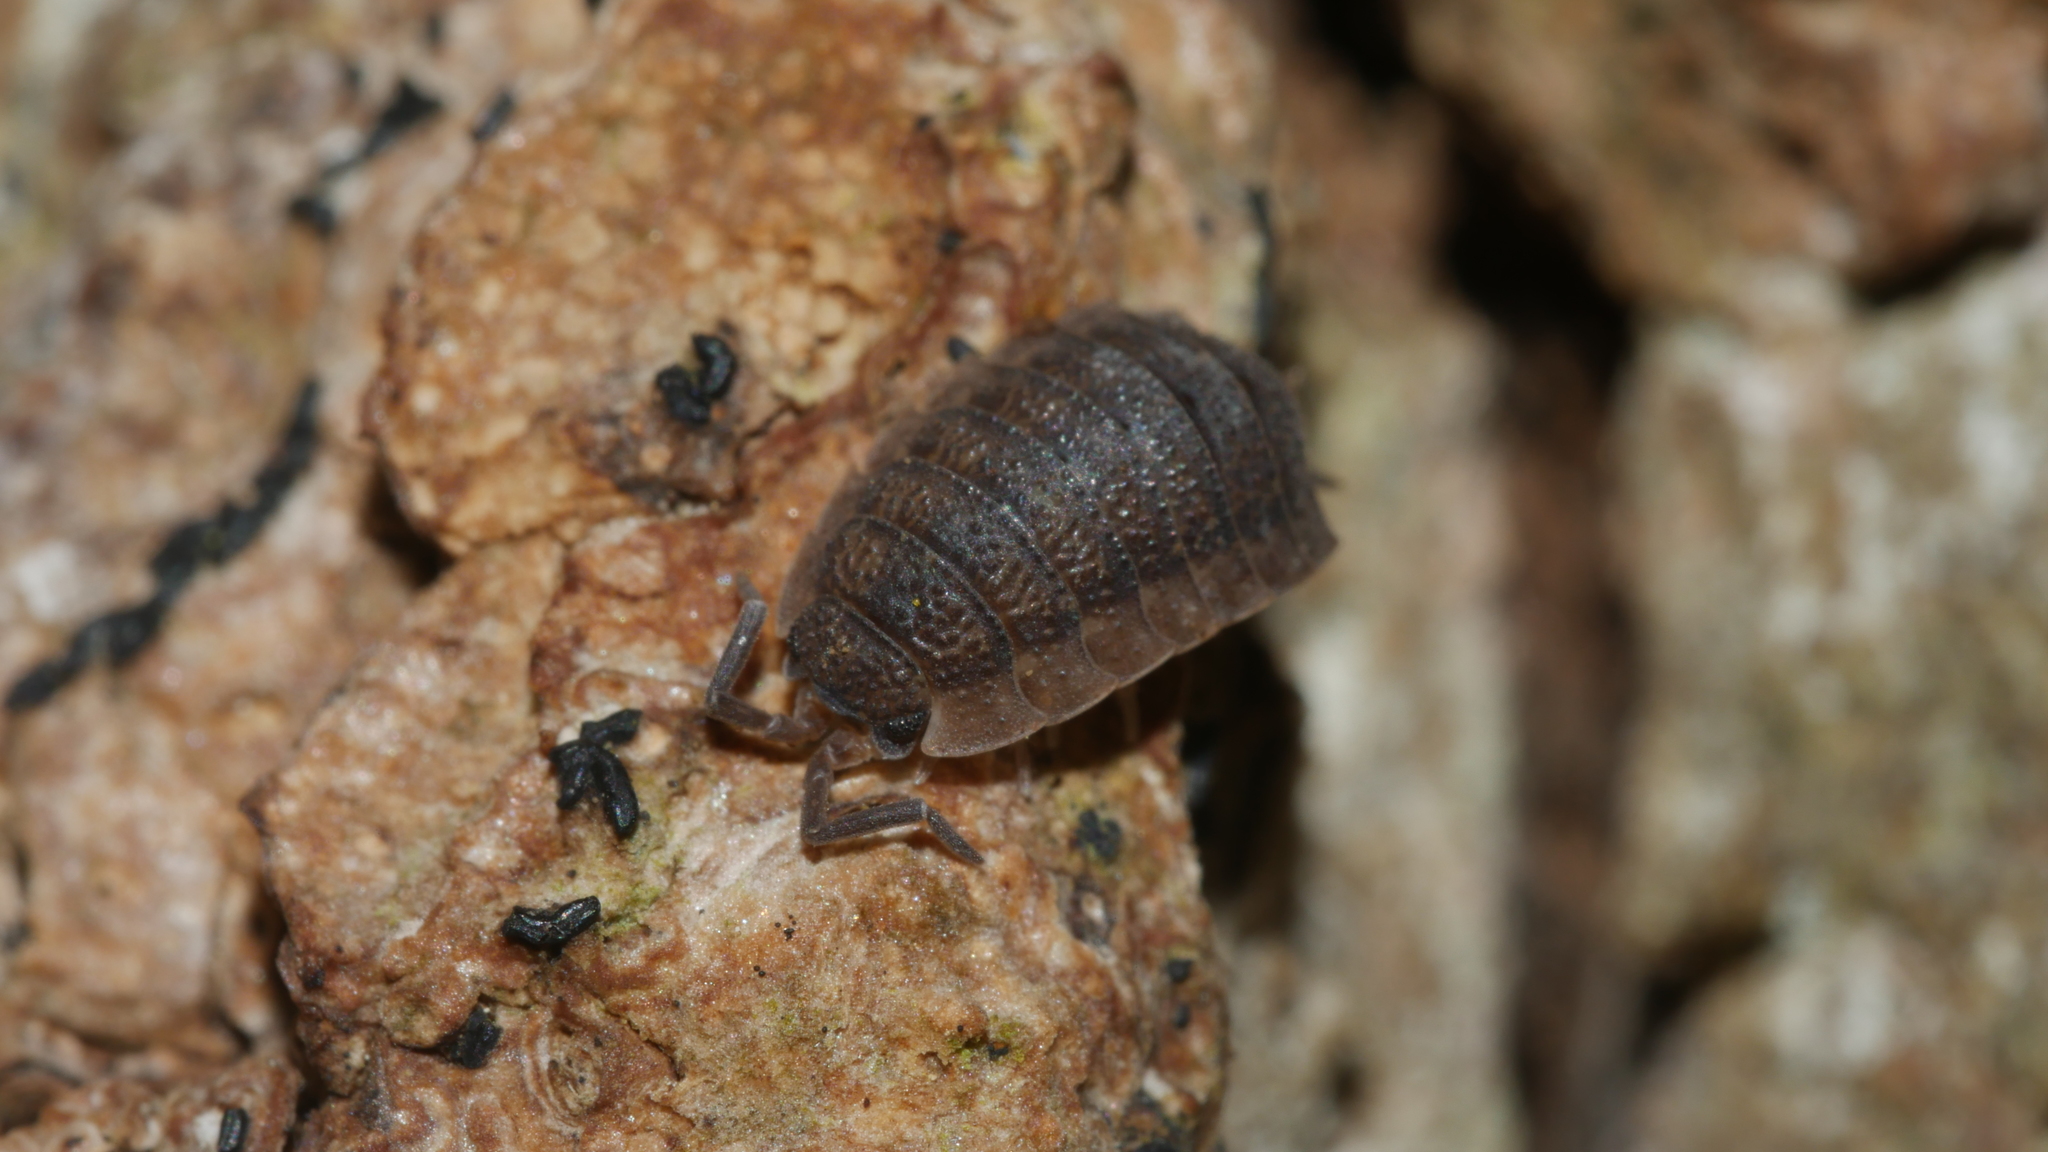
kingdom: Animalia
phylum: Arthropoda
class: Malacostraca
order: Isopoda
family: Porcellionidae
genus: Porcellio
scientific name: Porcellio scaber
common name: Common rough woodlouse
